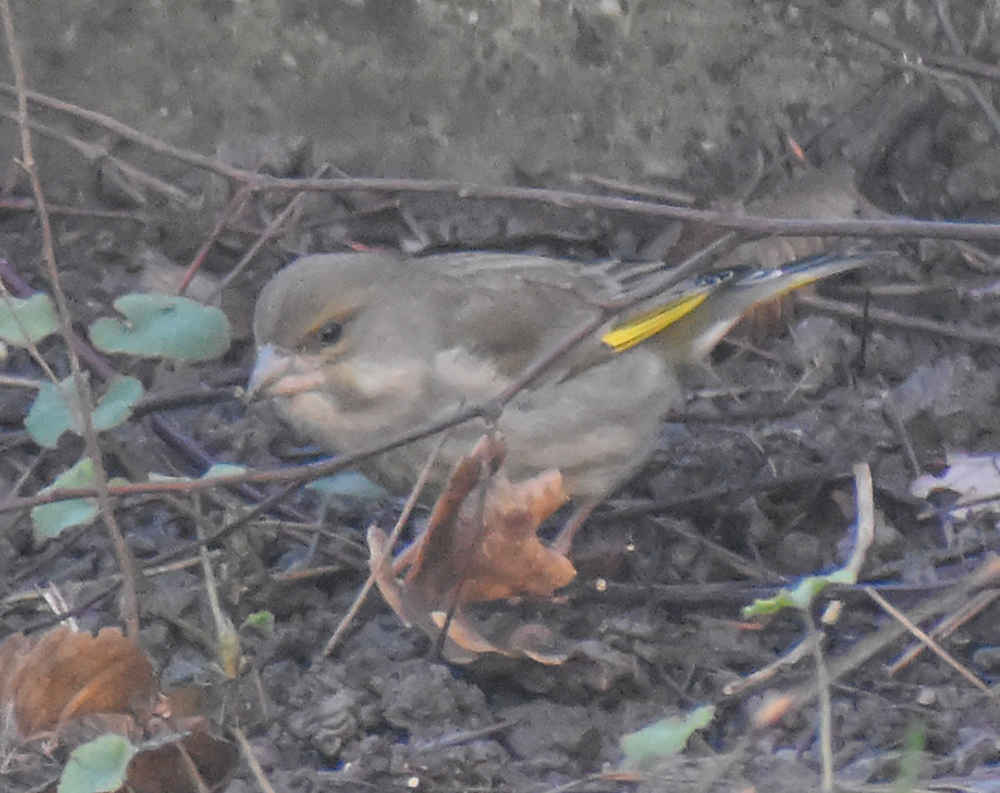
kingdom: Plantae
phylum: Tracheophyta
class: Liliopsida
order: Poales
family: Poaceae
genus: Chloris
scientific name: Chloris chloris
